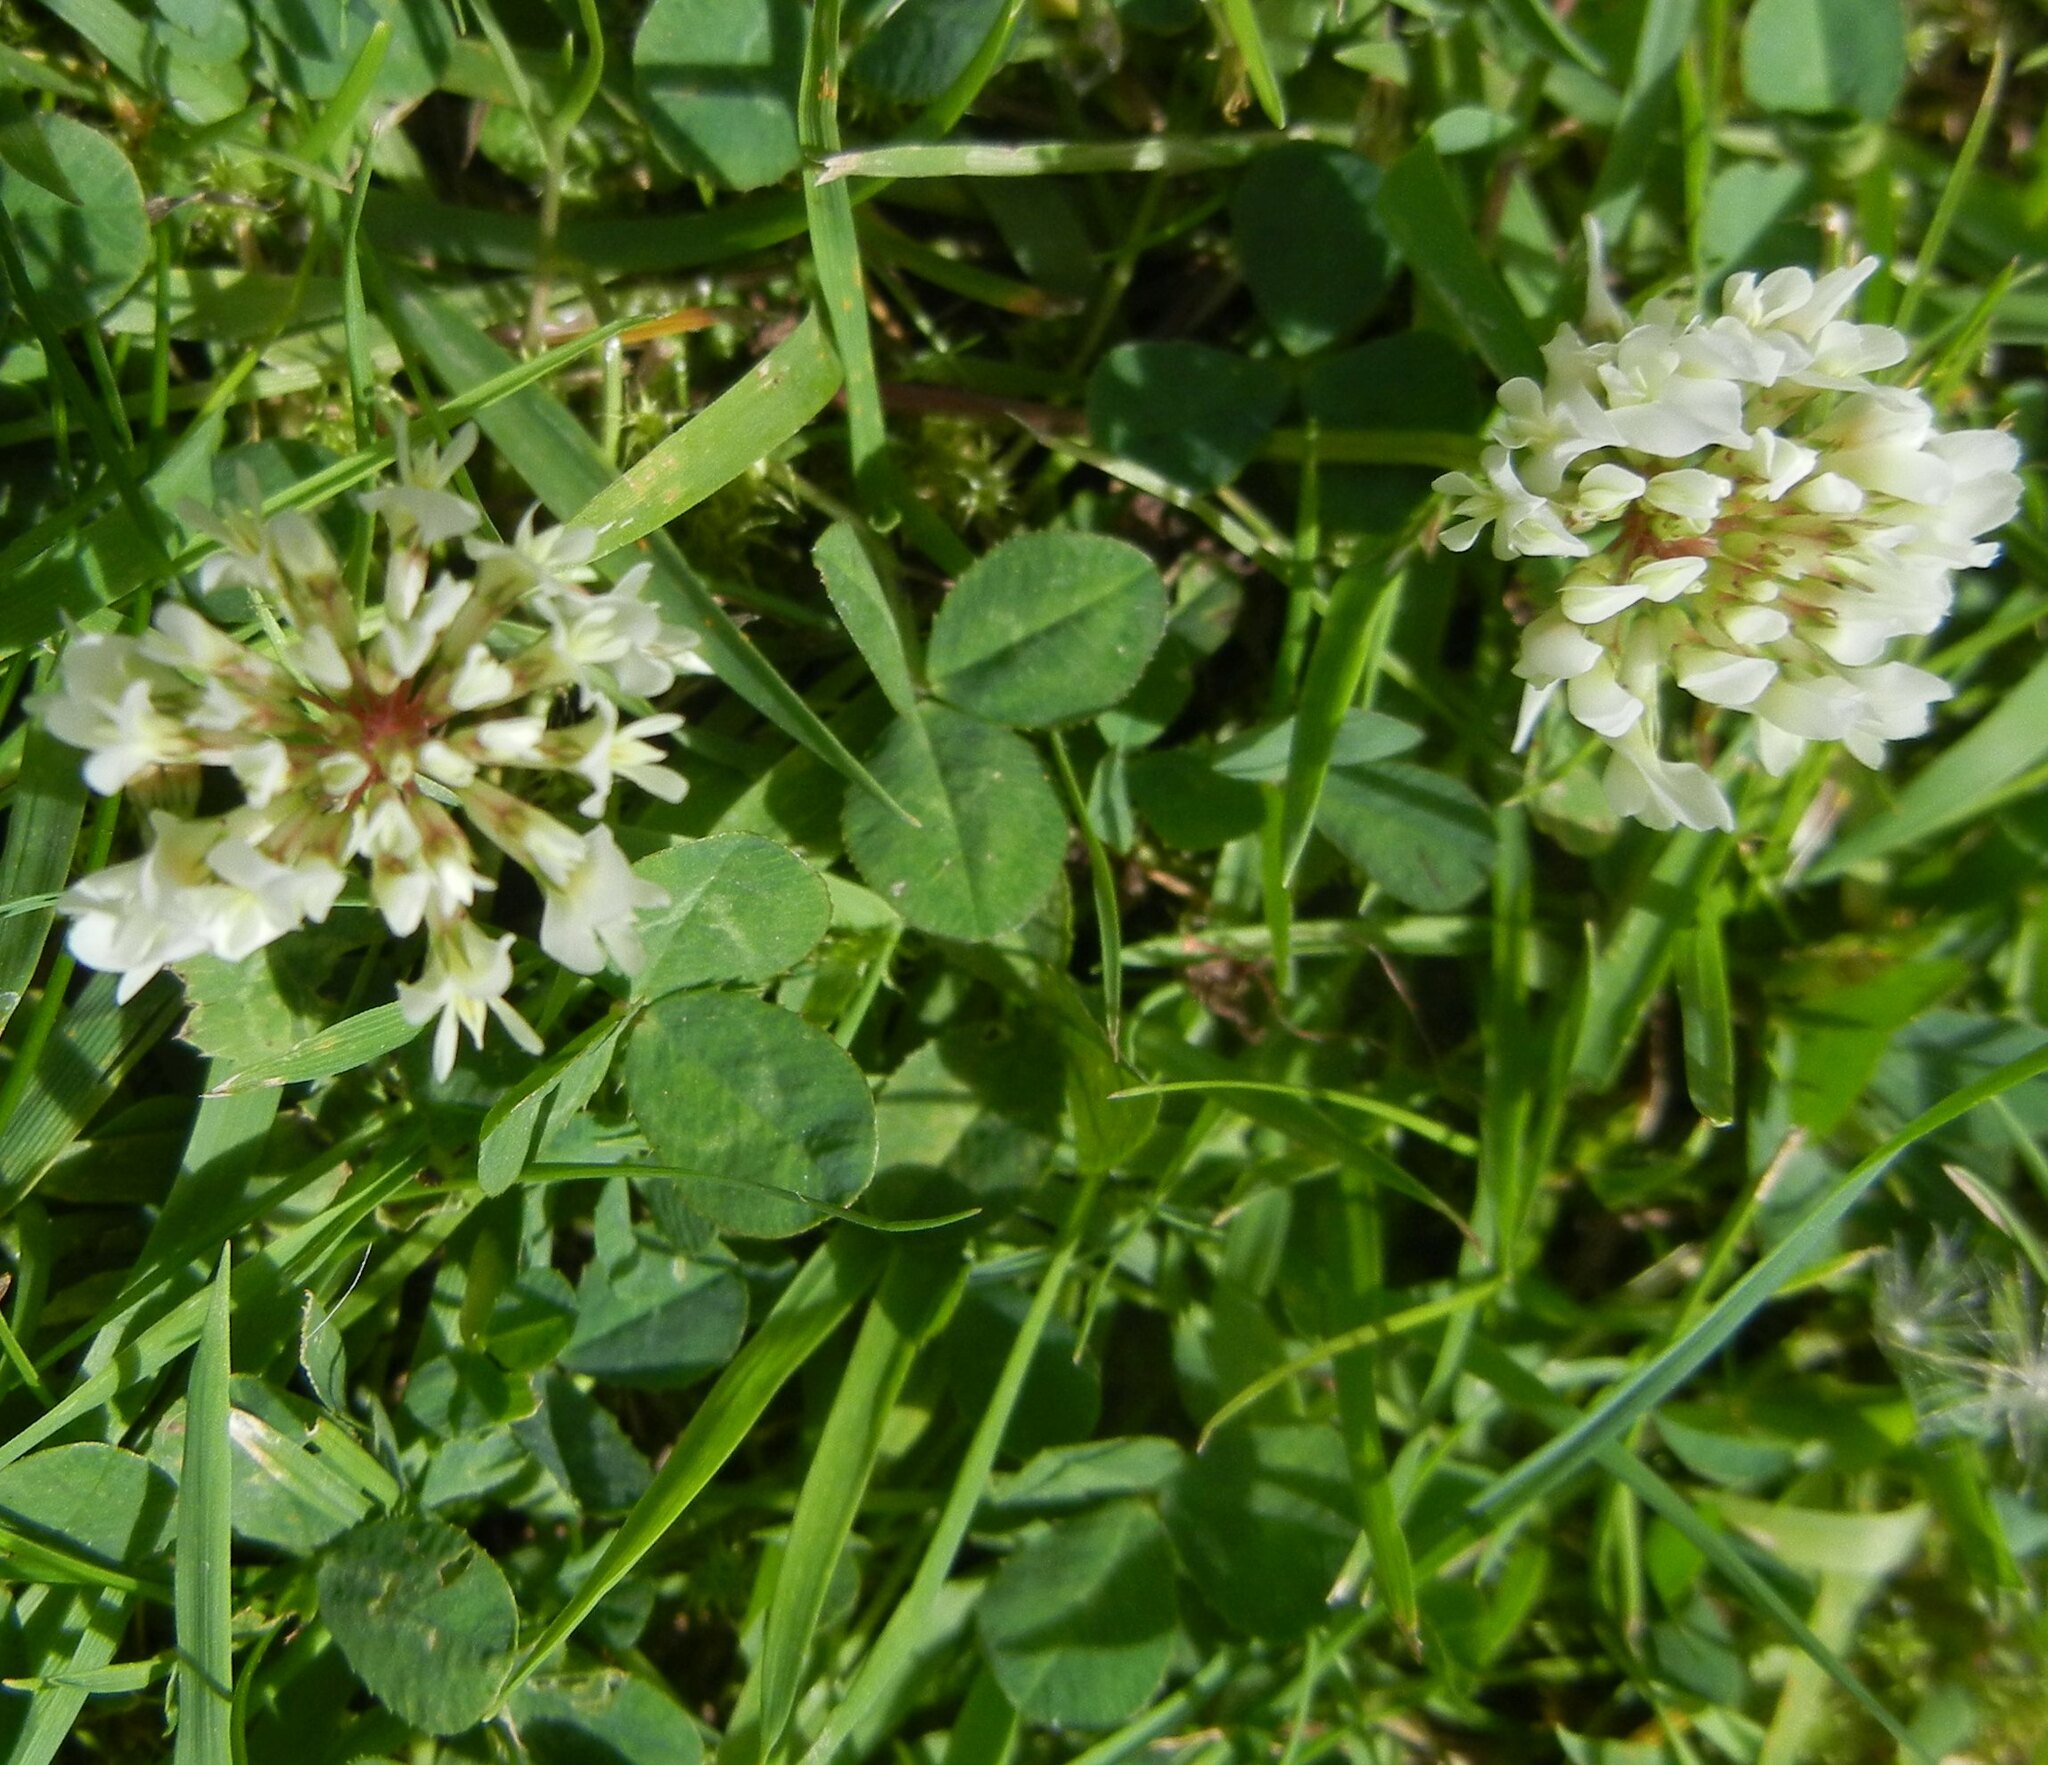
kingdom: Plantae
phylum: Tracheophyta
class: Magnoliopsida
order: Fabales
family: Fabaceae
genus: Trifolium
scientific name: Trifolium repens
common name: White clover
